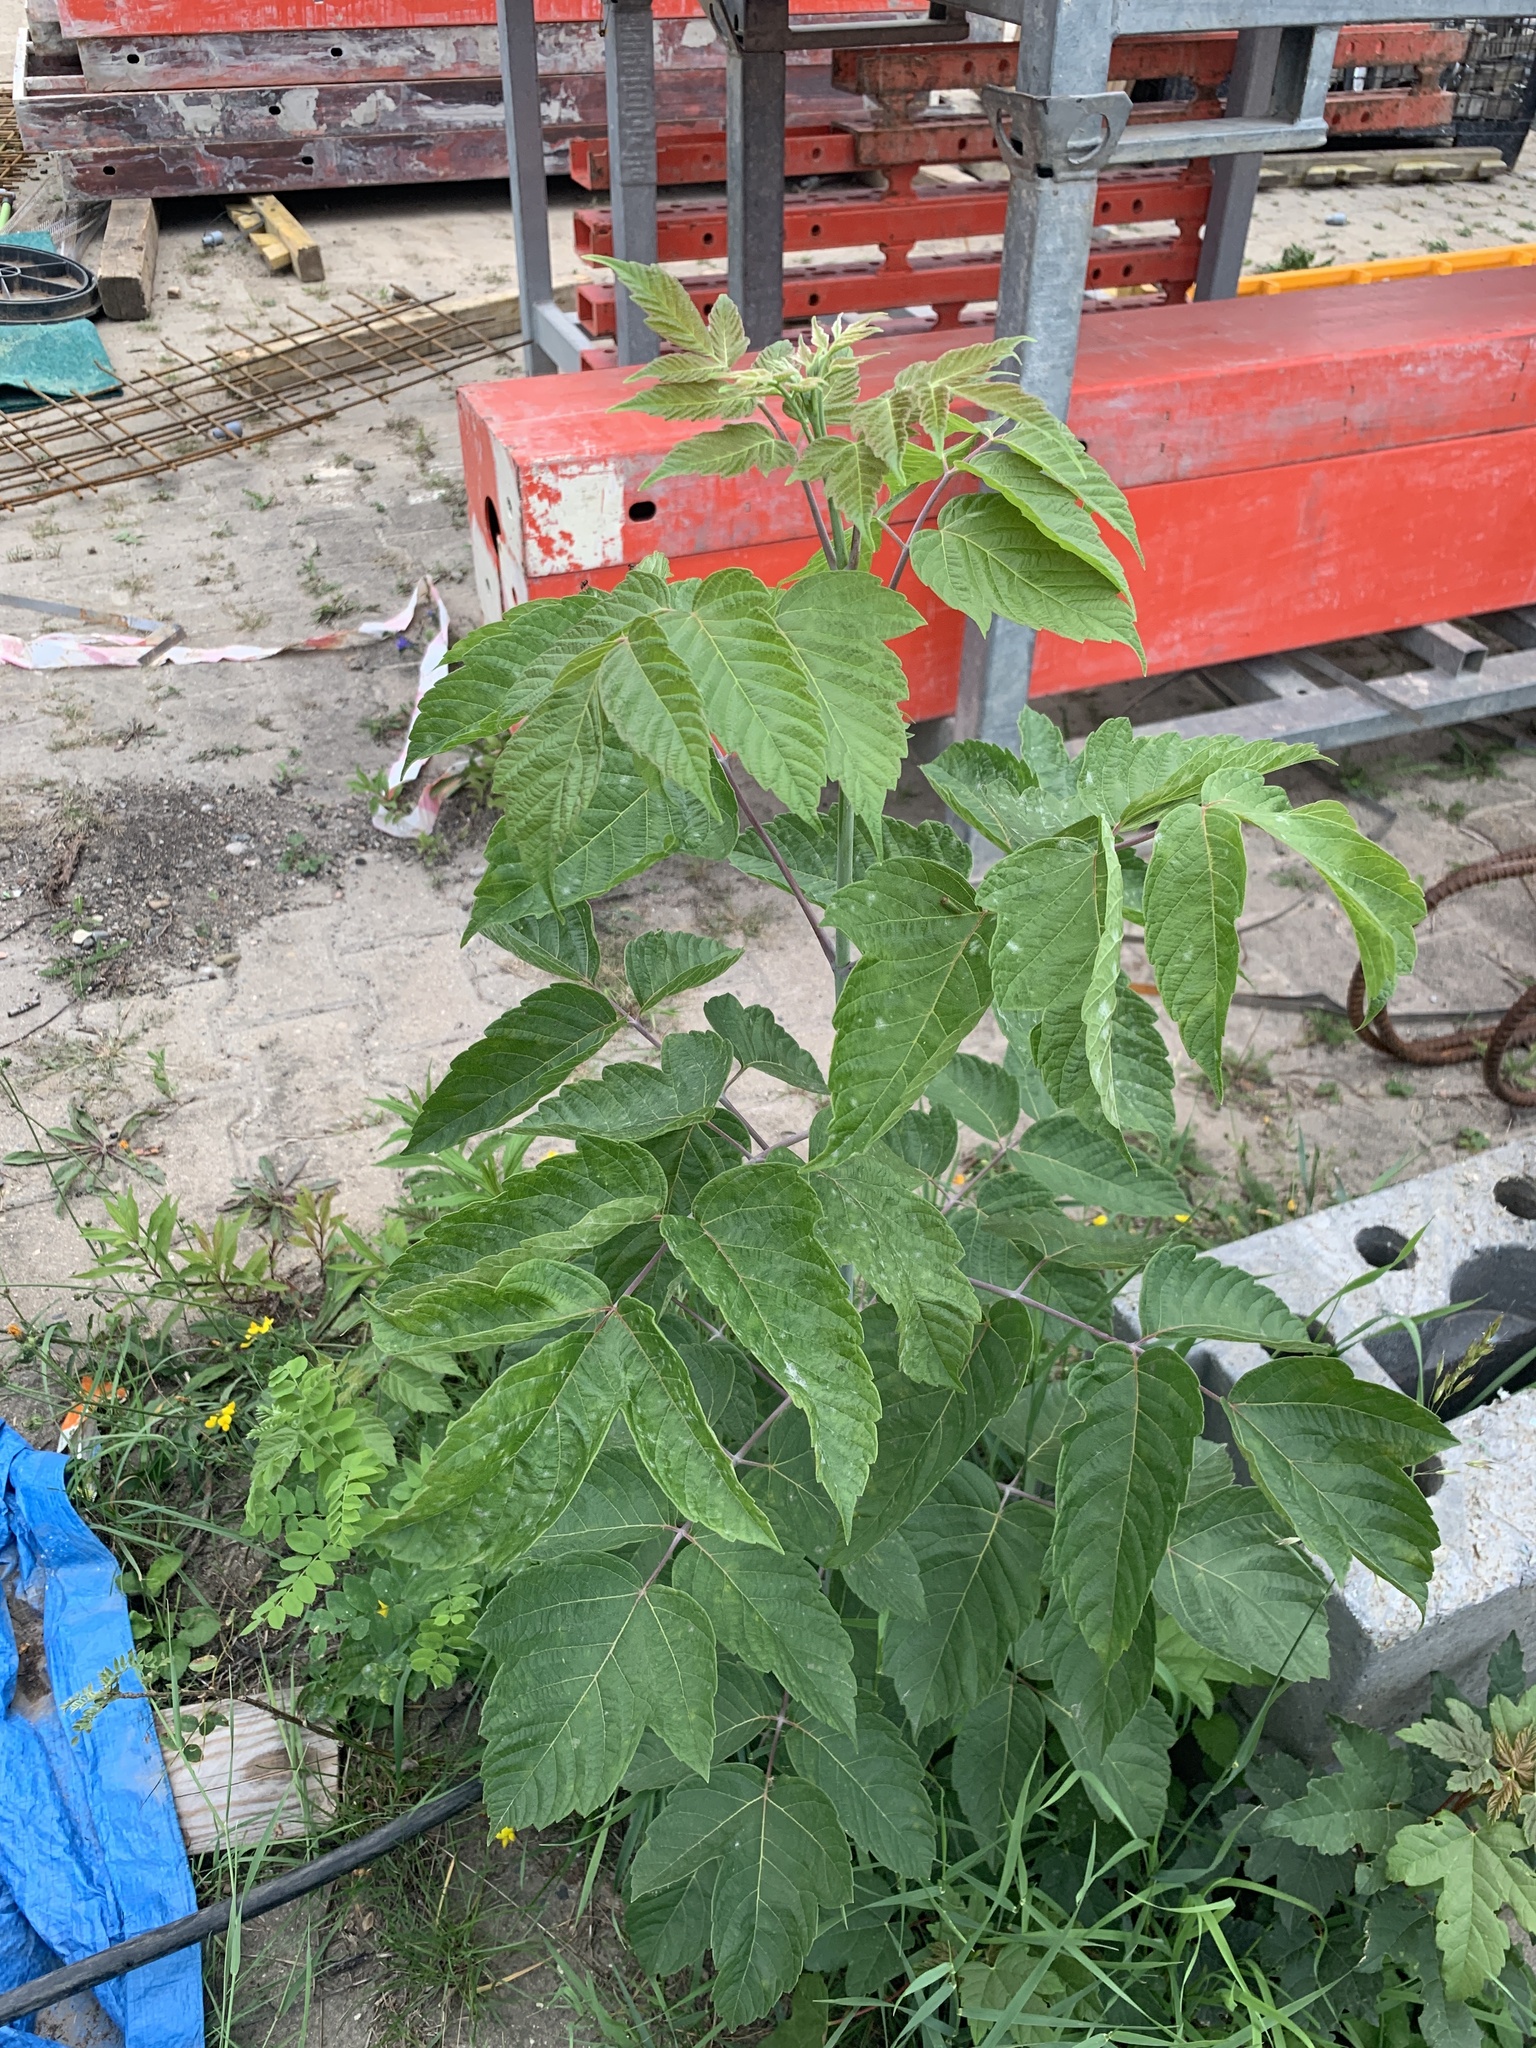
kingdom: Plantae
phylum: Tracheophyta
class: Magnoliopsida
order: Sapindales
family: Sapindaceae
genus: Acer
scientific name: Acer negundo
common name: Ashleaf maple
